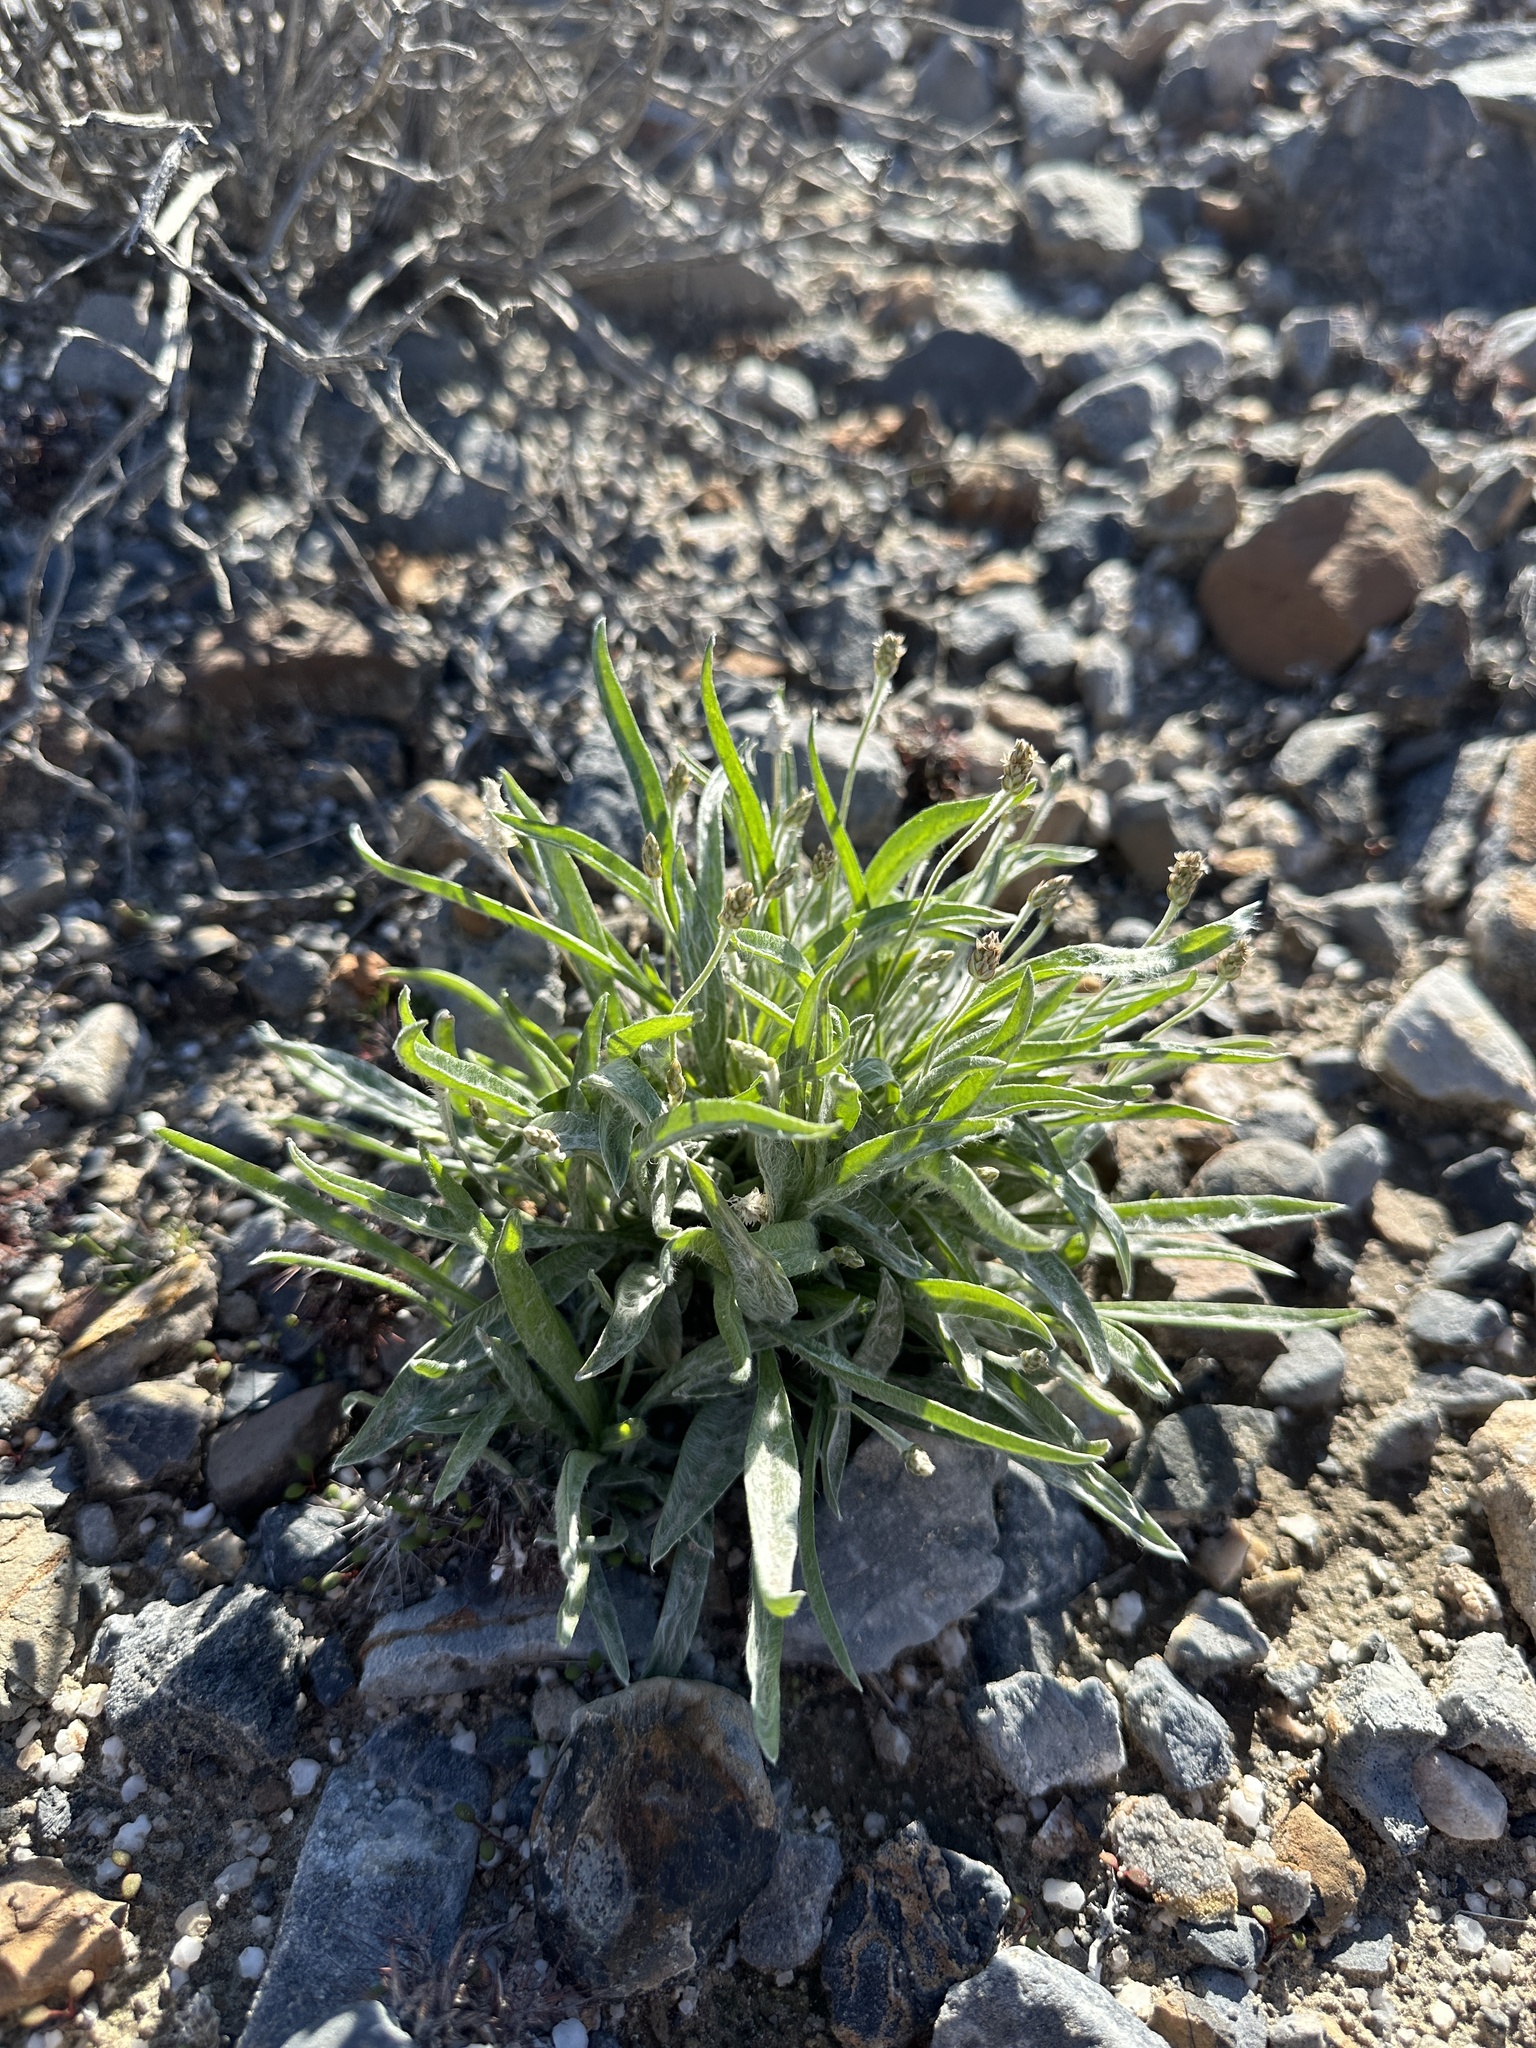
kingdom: Plantae
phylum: Tracheophyta
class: Magnoliopsida
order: Lamiales
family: Plantaginaceae
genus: Plantago
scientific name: Plantago ovata
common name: Blond plantain
